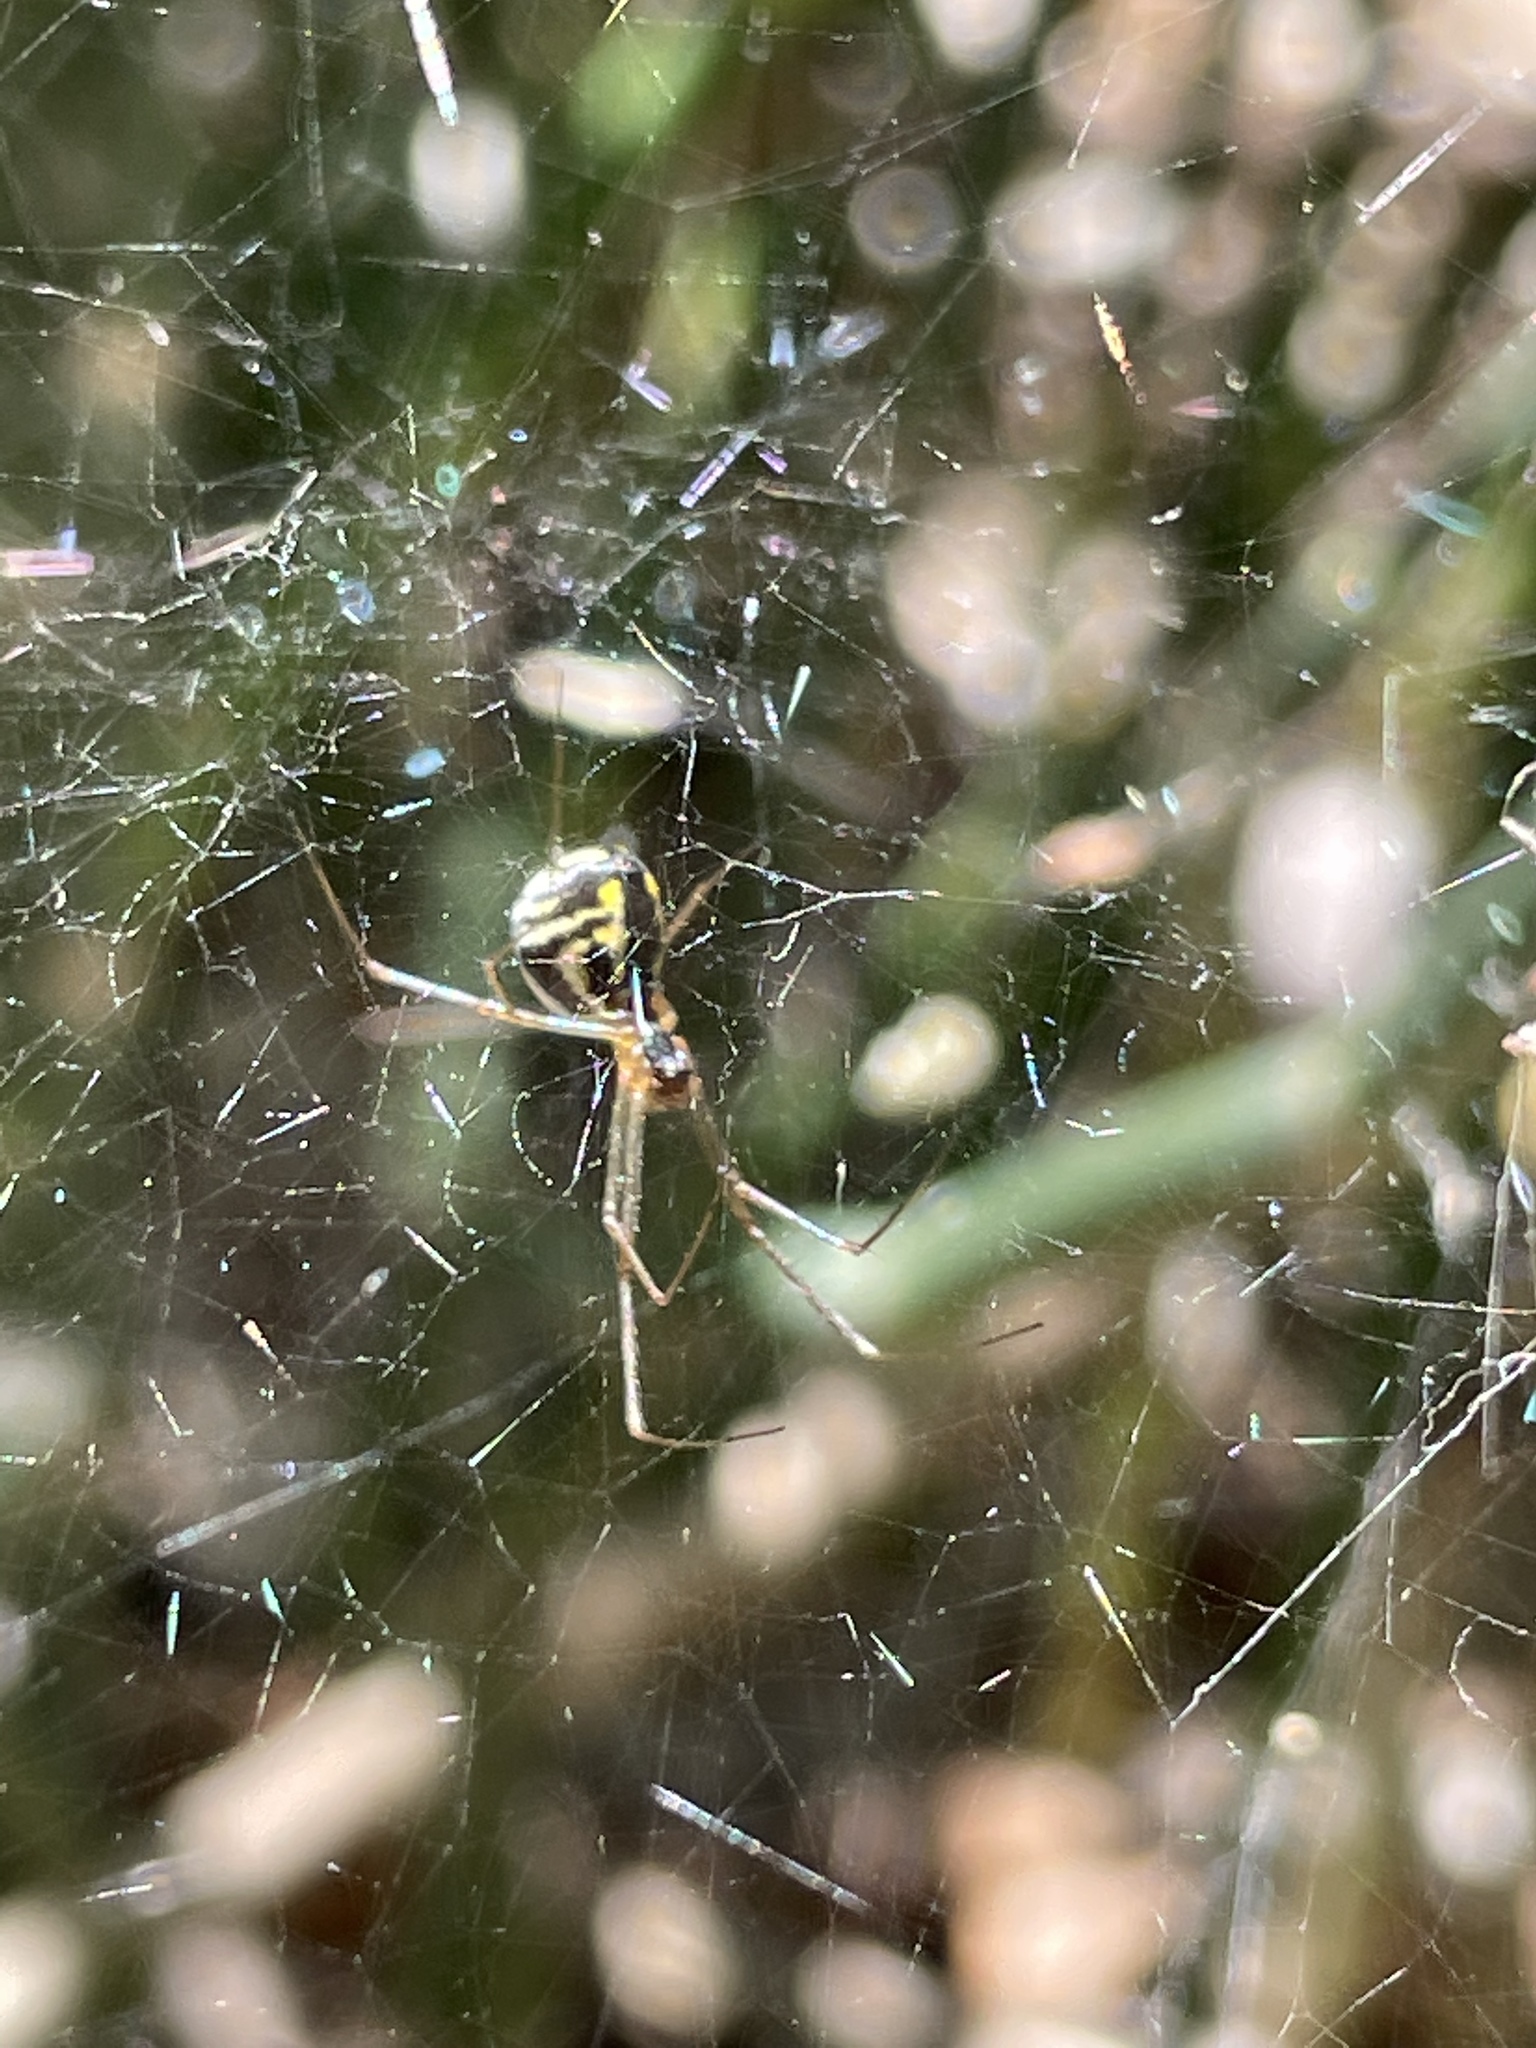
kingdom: Animalia
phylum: Arthropoda
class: Arachnida
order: Araneae
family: Linyphiidae
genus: Neriene
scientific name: Neriene radiata
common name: Filmy dome spider
